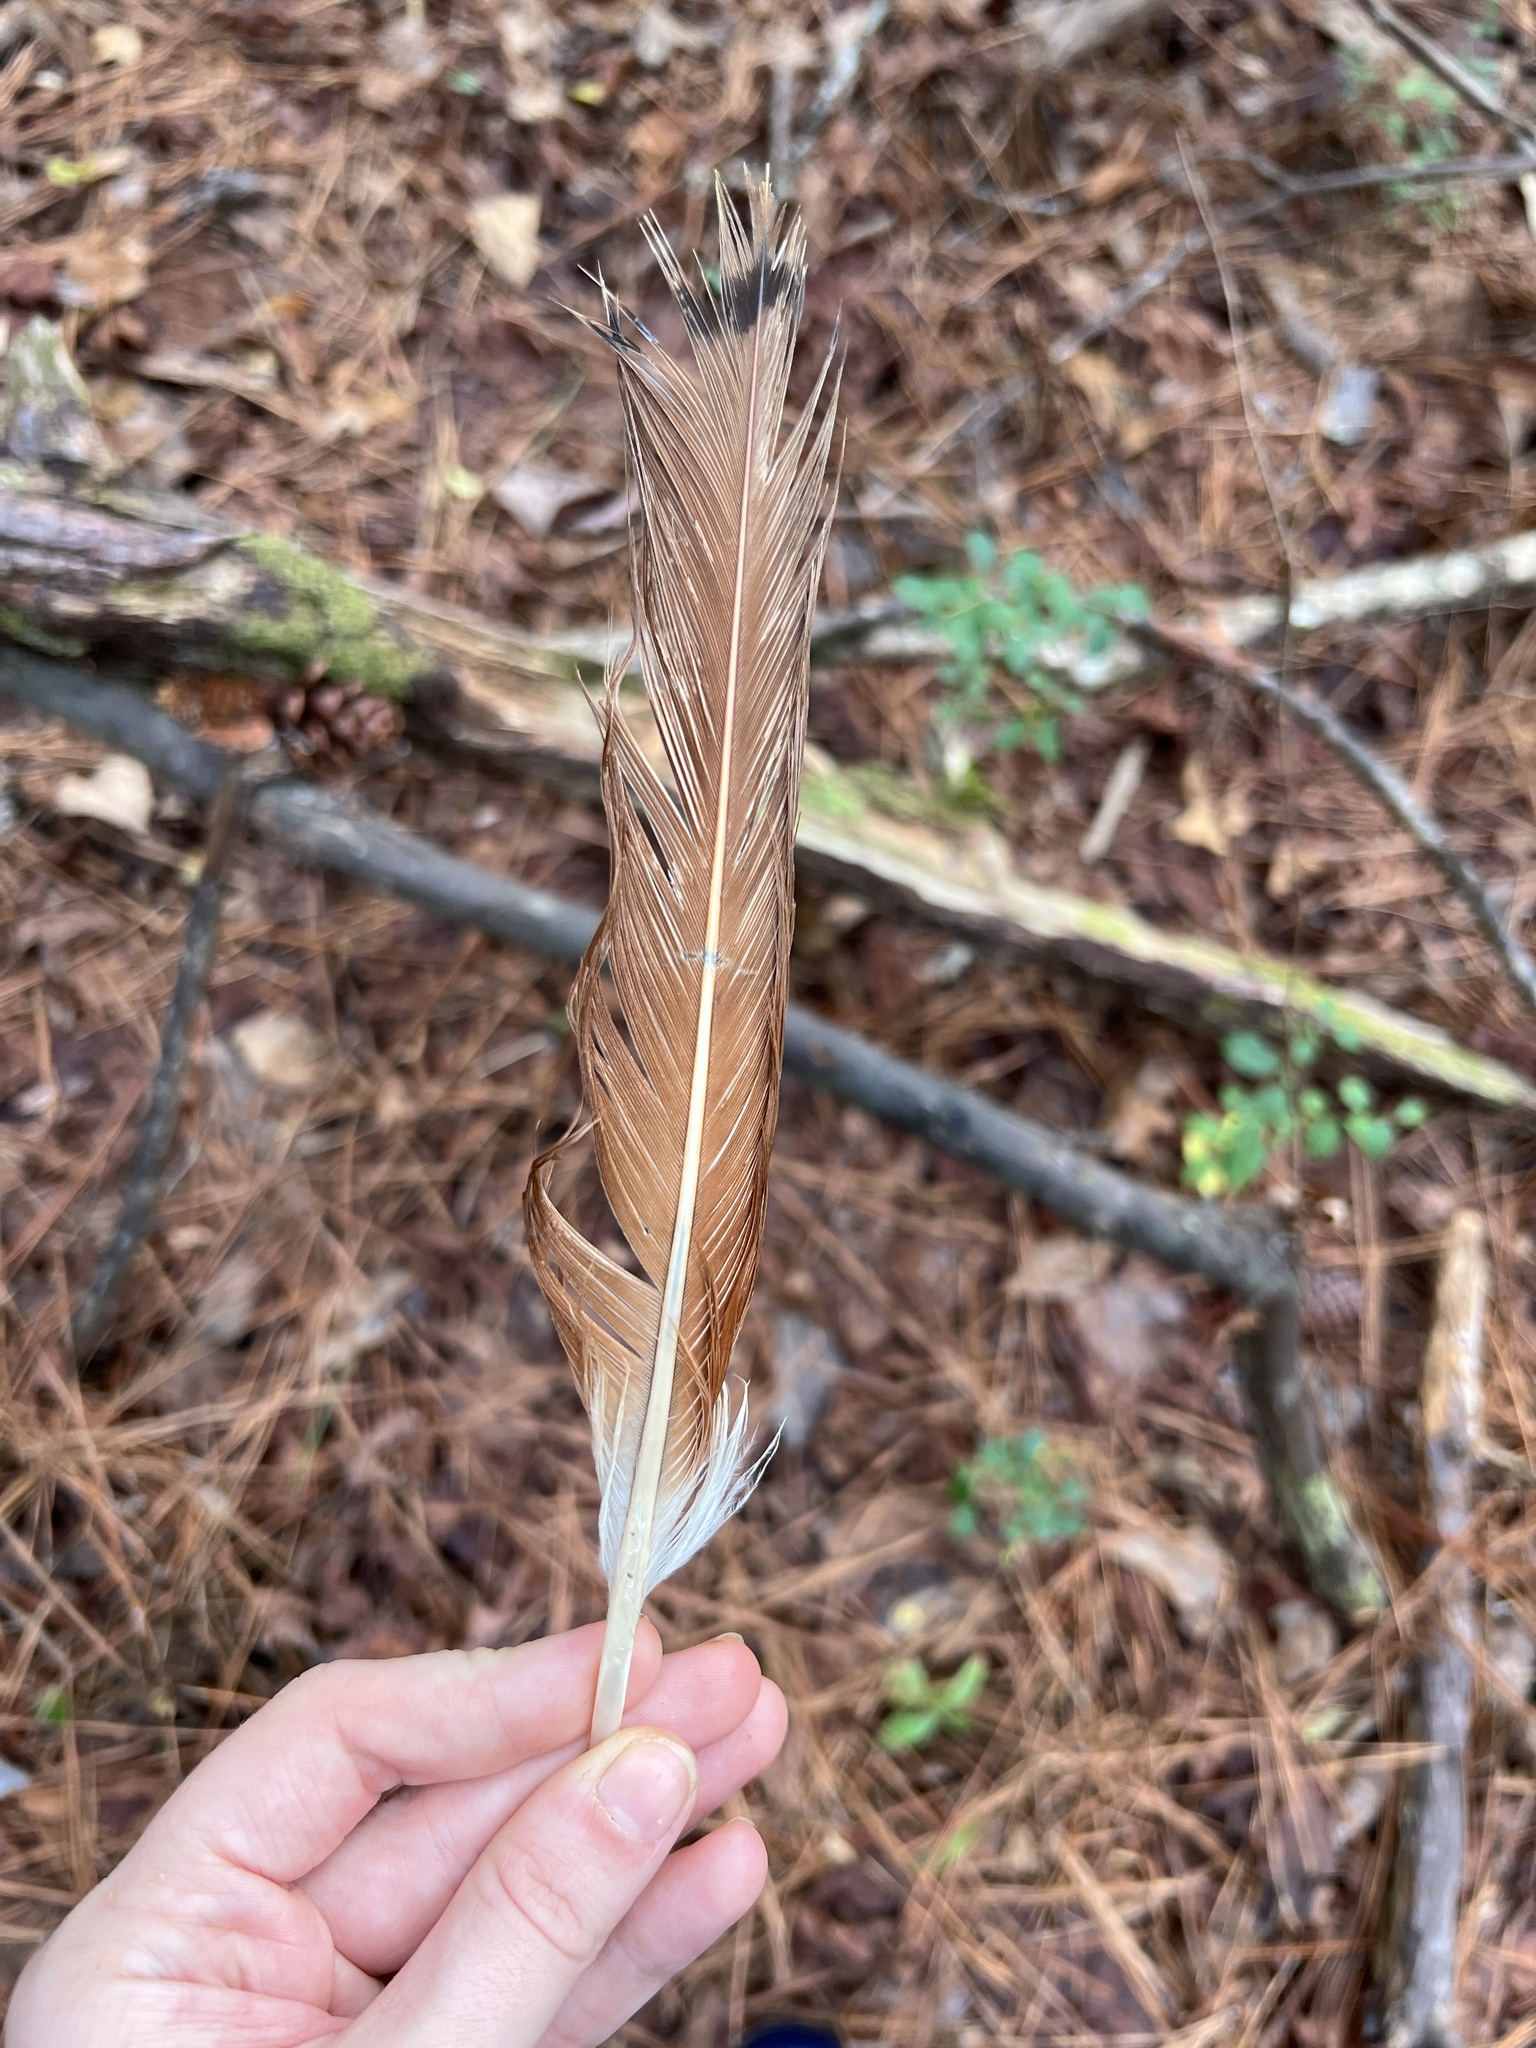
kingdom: Animalia
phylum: Chordata
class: Aves
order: Accipitriformes
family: Accipitridae
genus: Buteo
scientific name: Buteo jamaicensis
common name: Red-tailed hawk
